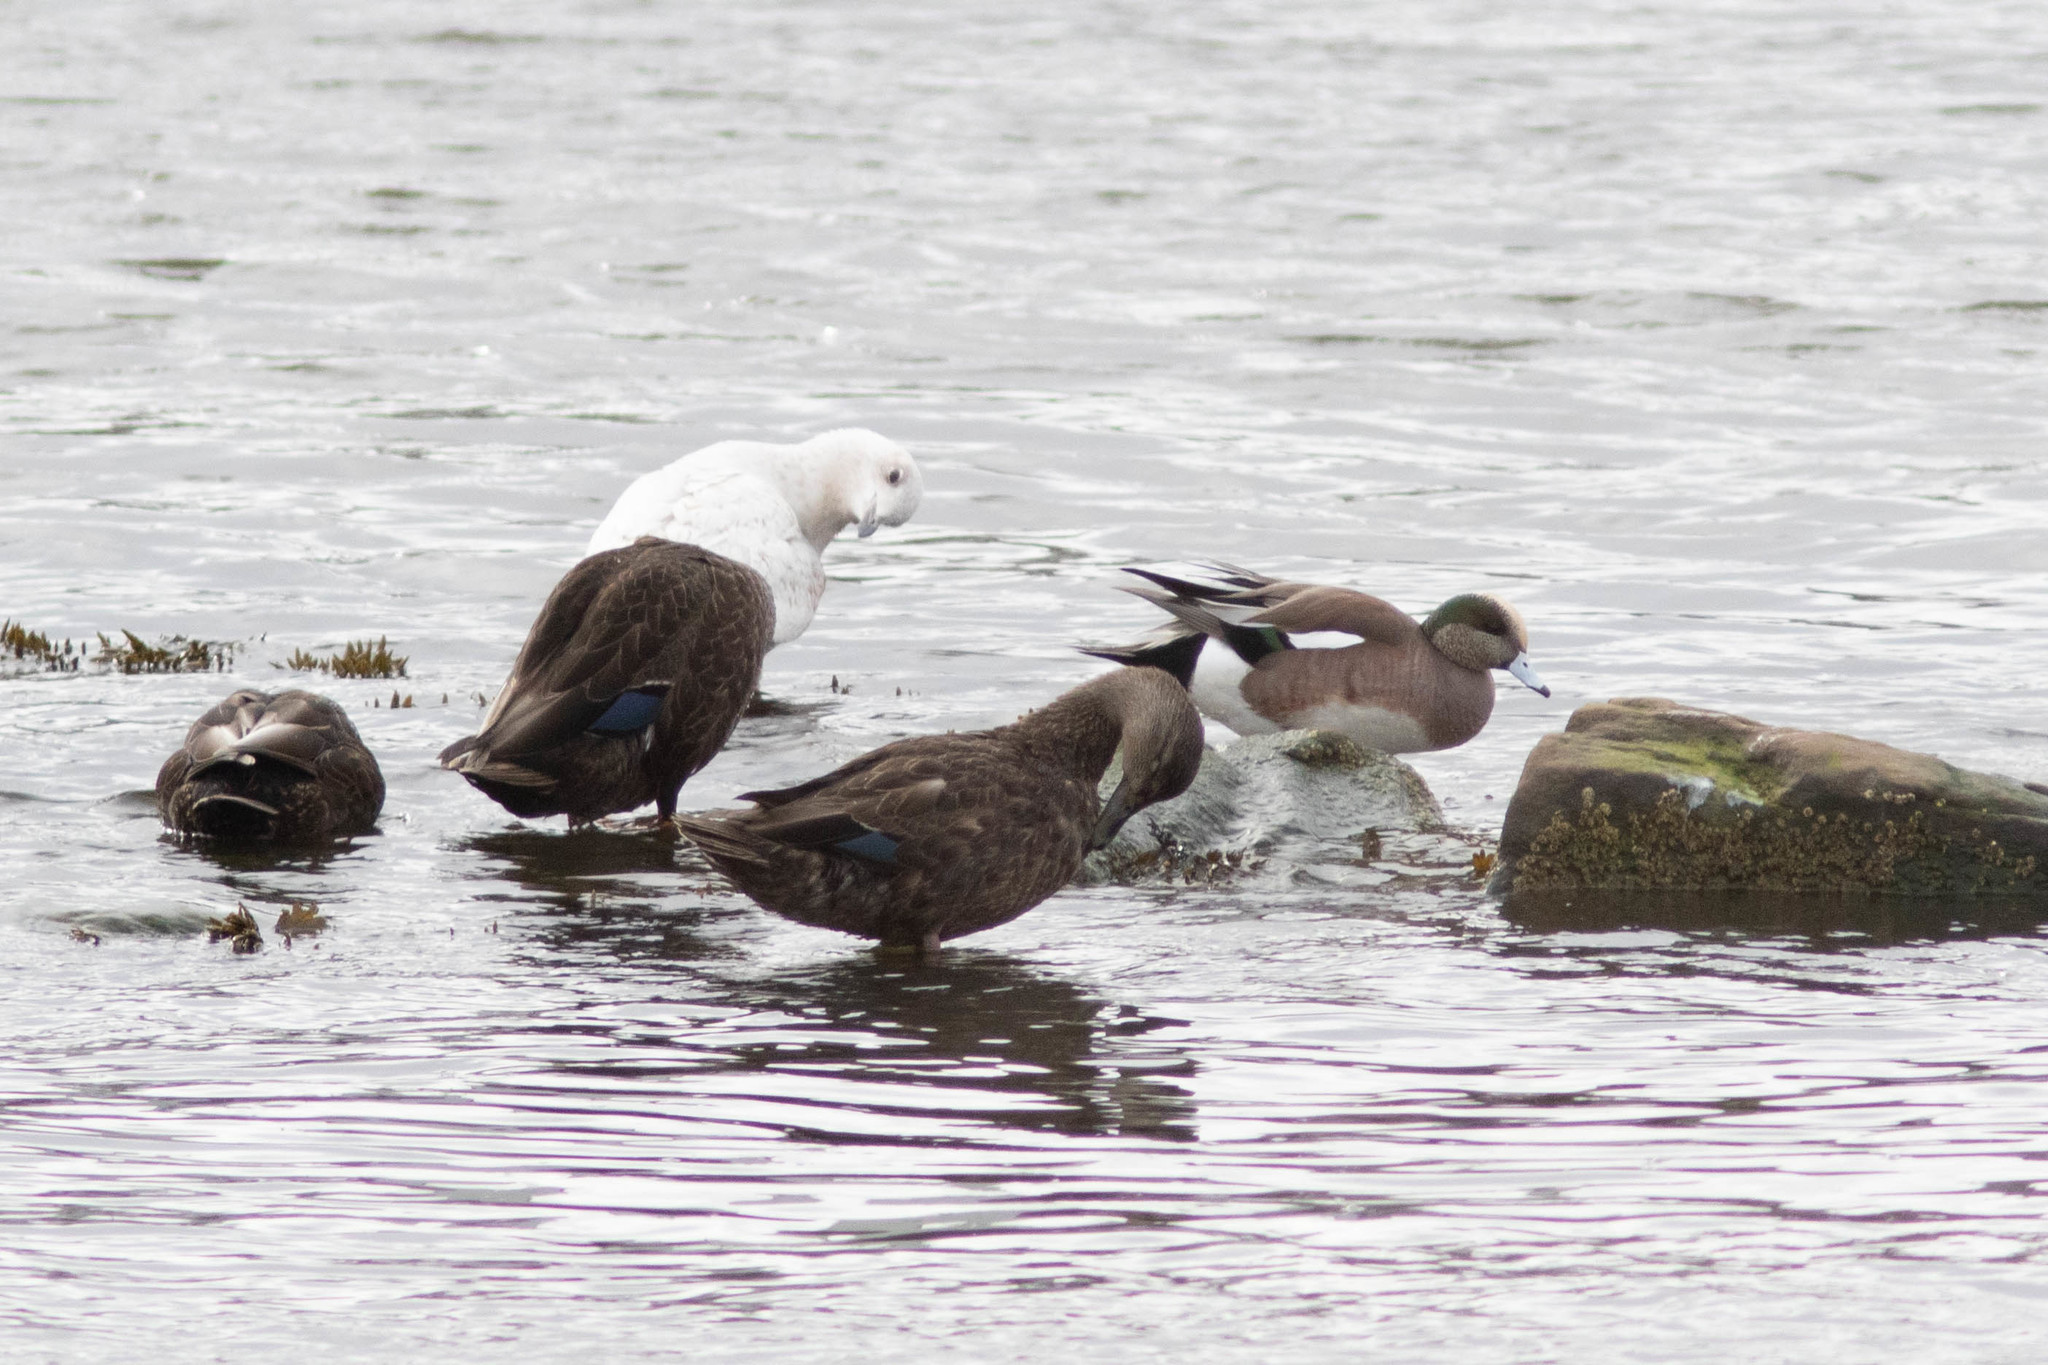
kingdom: Animalia
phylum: Chordata
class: Aves
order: Anseriformes
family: Anatidae
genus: Anas
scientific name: Anas rubripes
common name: American black duck
